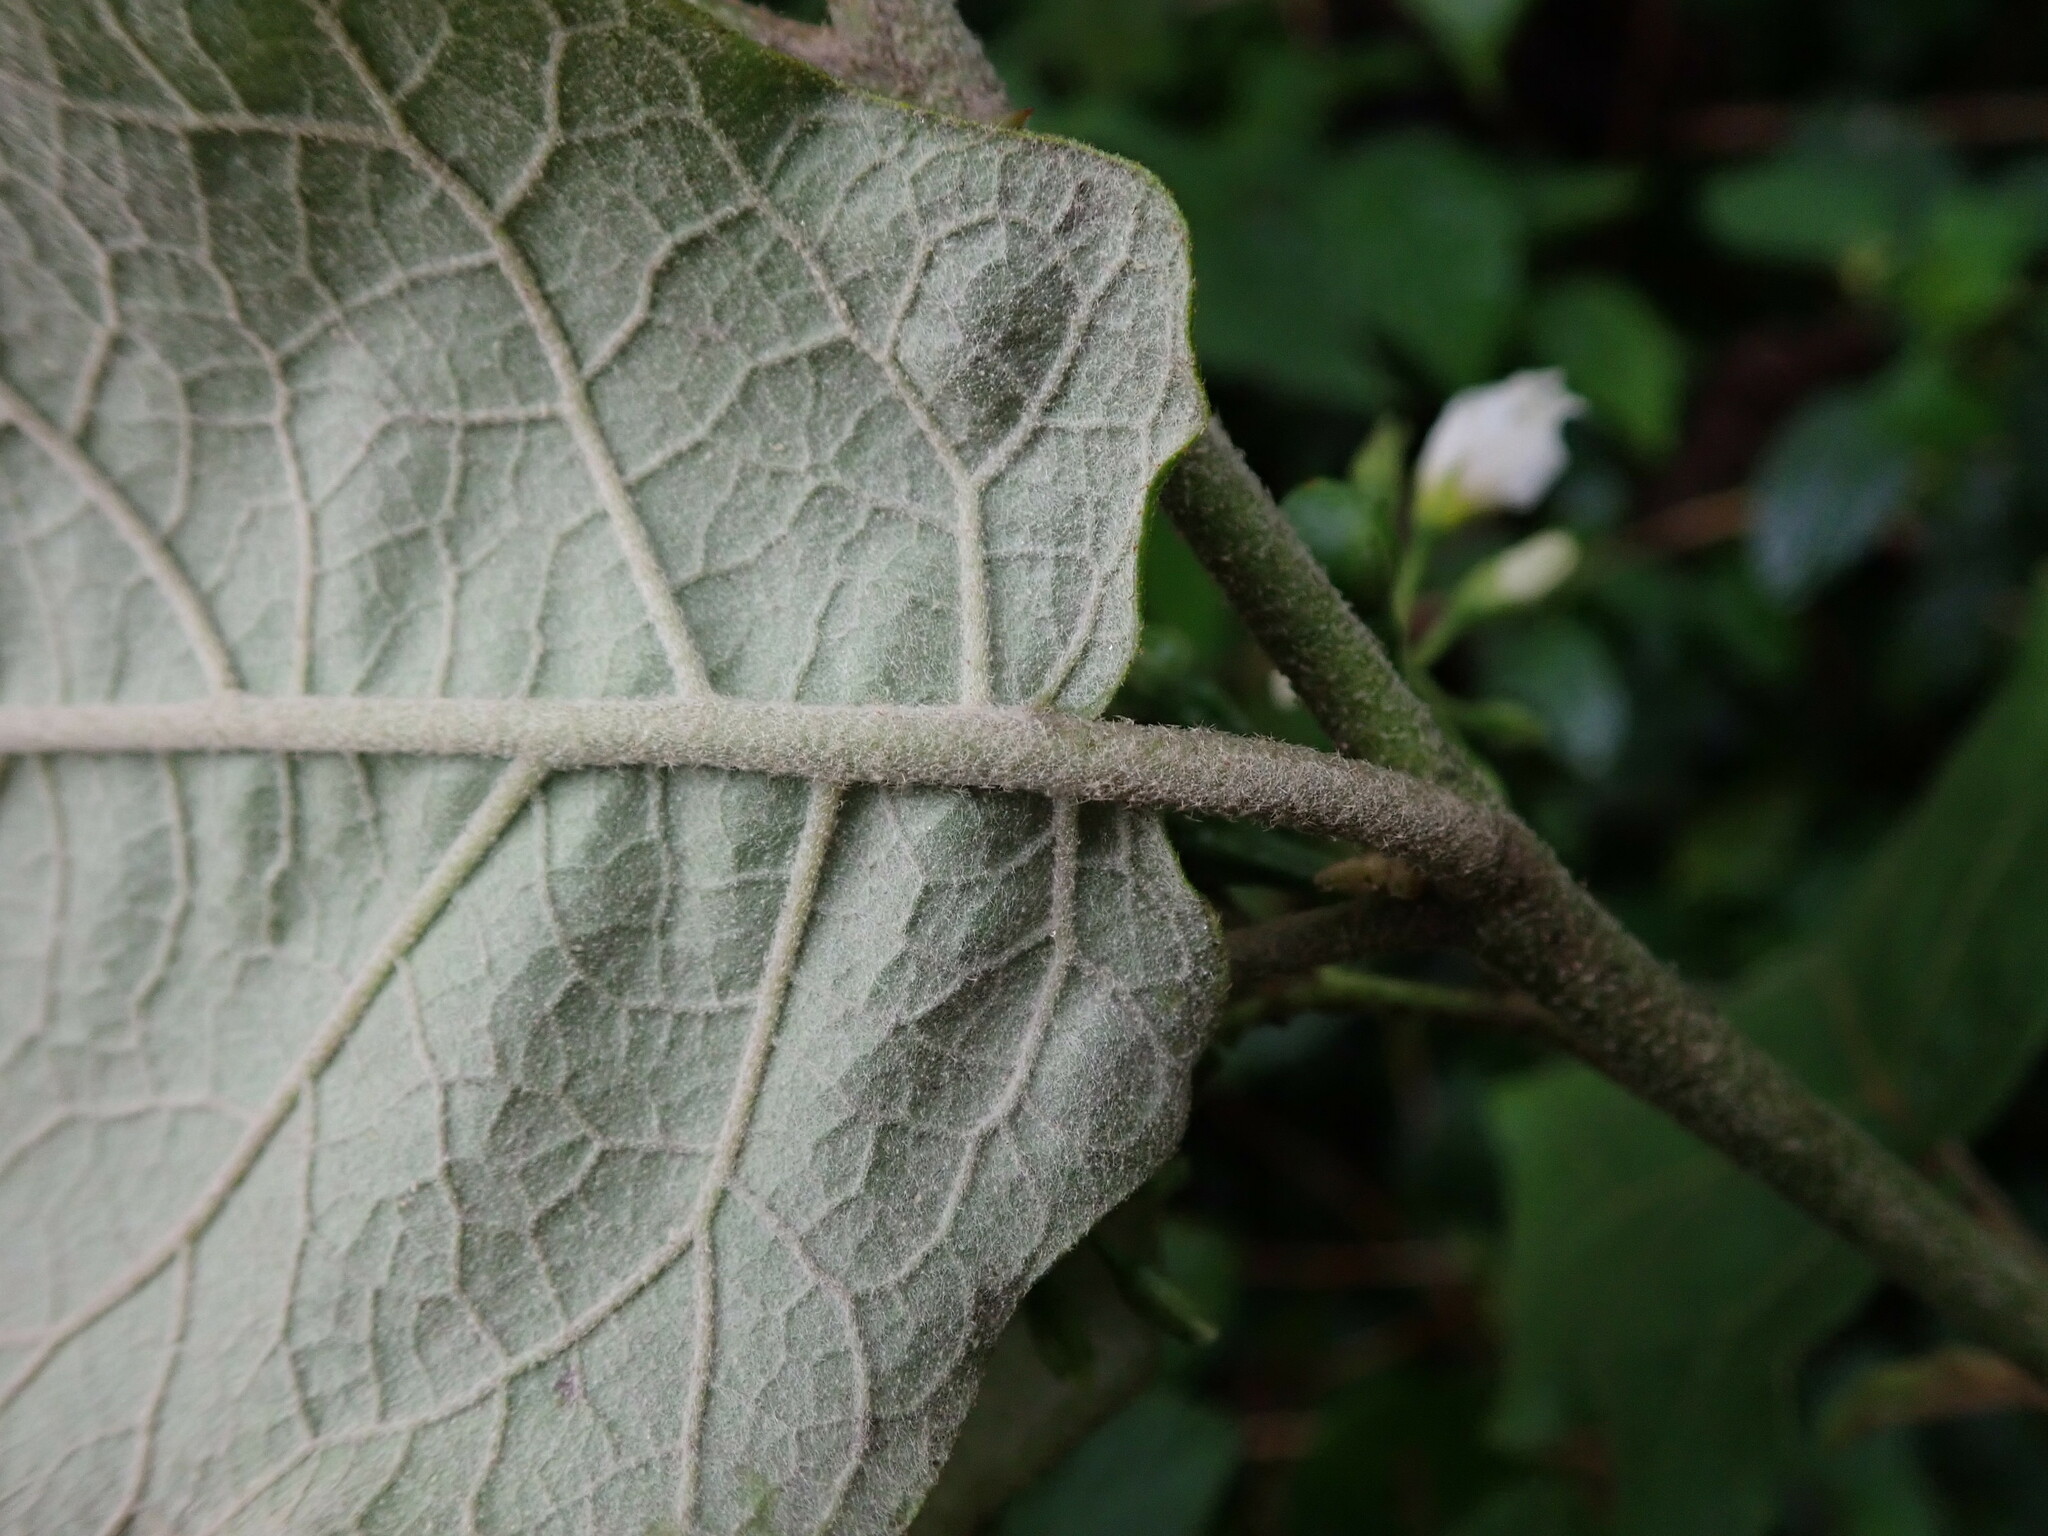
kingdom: Plantae
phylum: Tracheophyta
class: Magnoliopsida
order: Solanales
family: Solanaceae
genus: Solanum
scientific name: Solanum torvum
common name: Turkey berry
